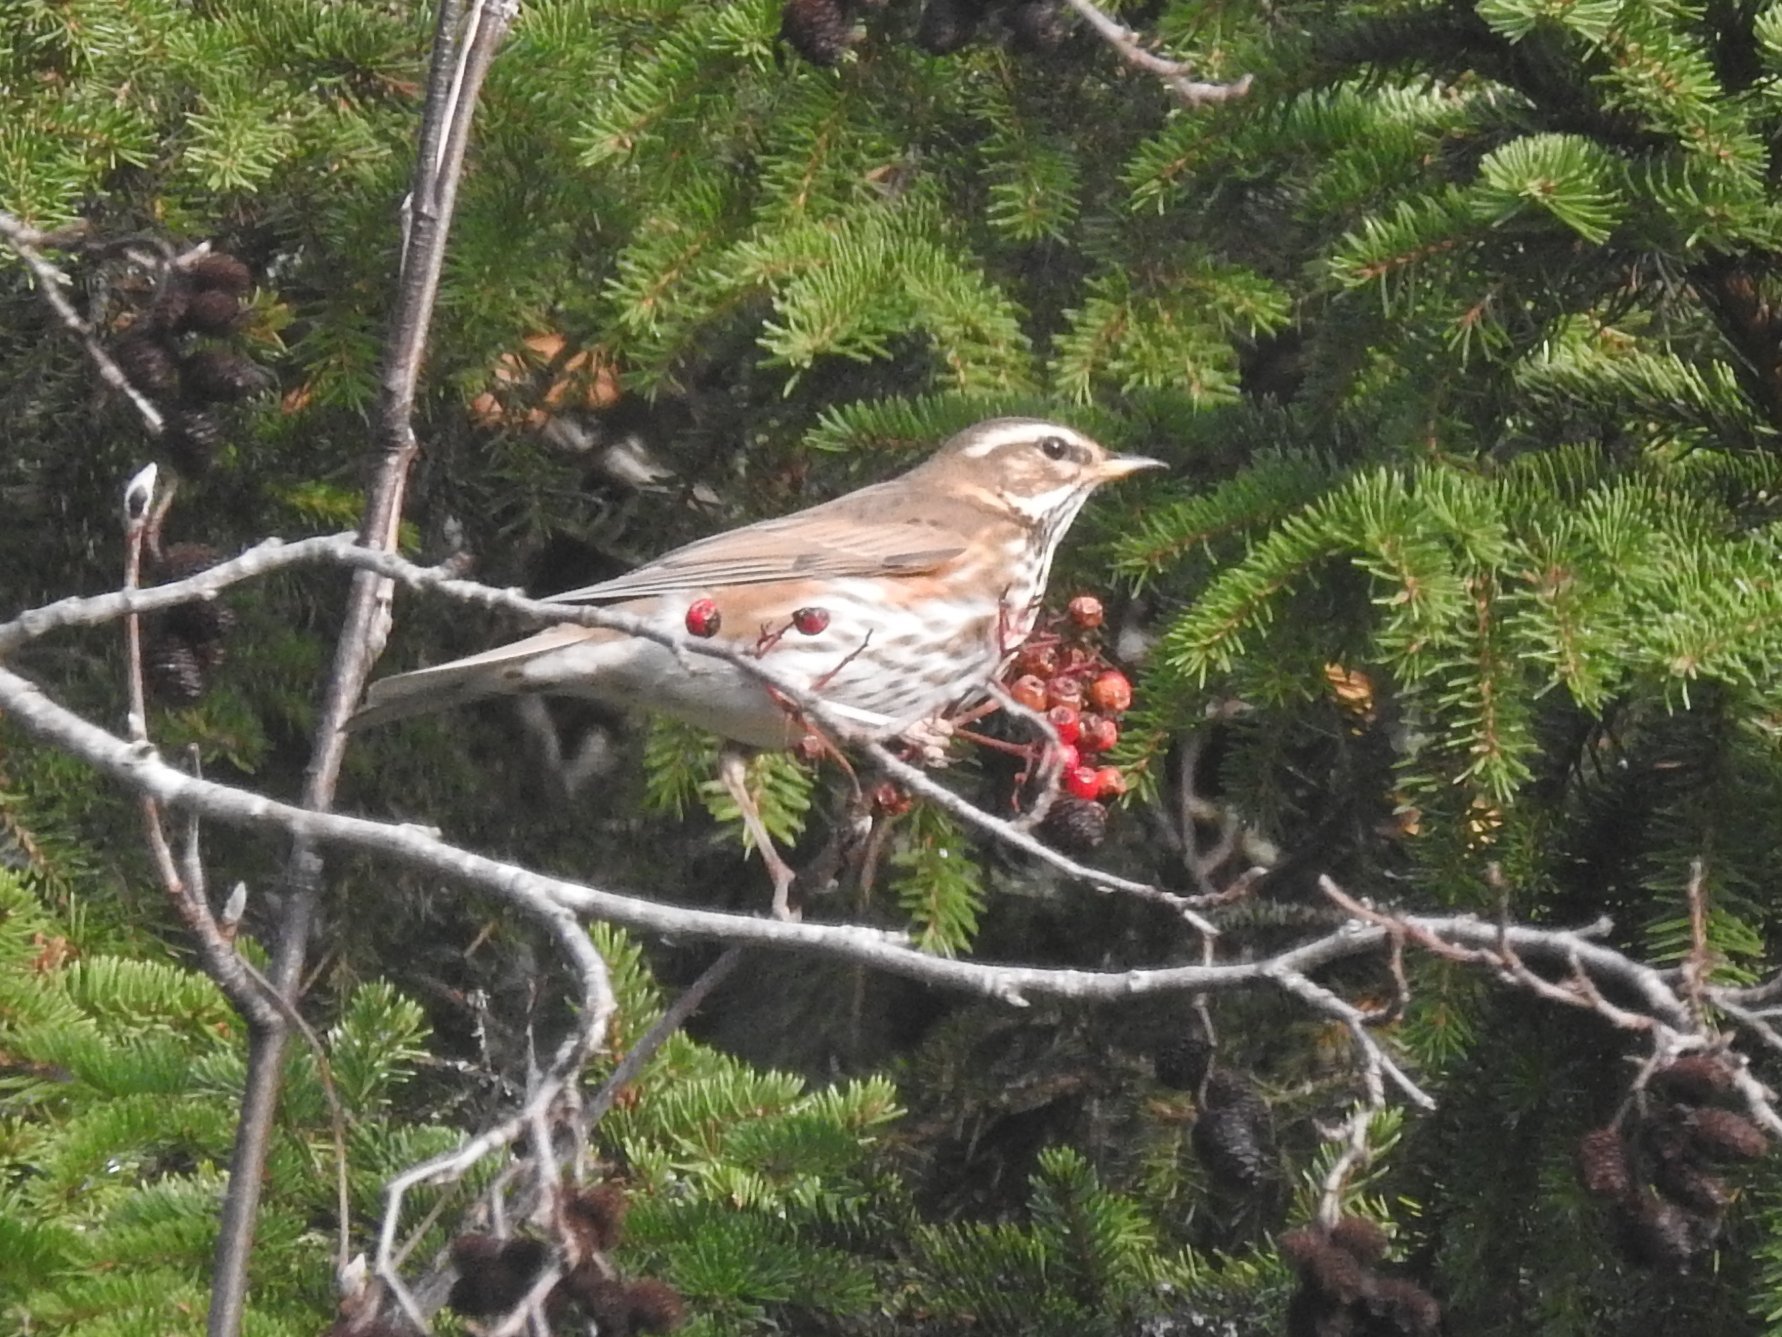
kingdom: Animalia
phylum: Chordata
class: Aves
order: Passeriformes
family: Turdidae
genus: Turdus
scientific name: Turdus iliacus
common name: Redwing
